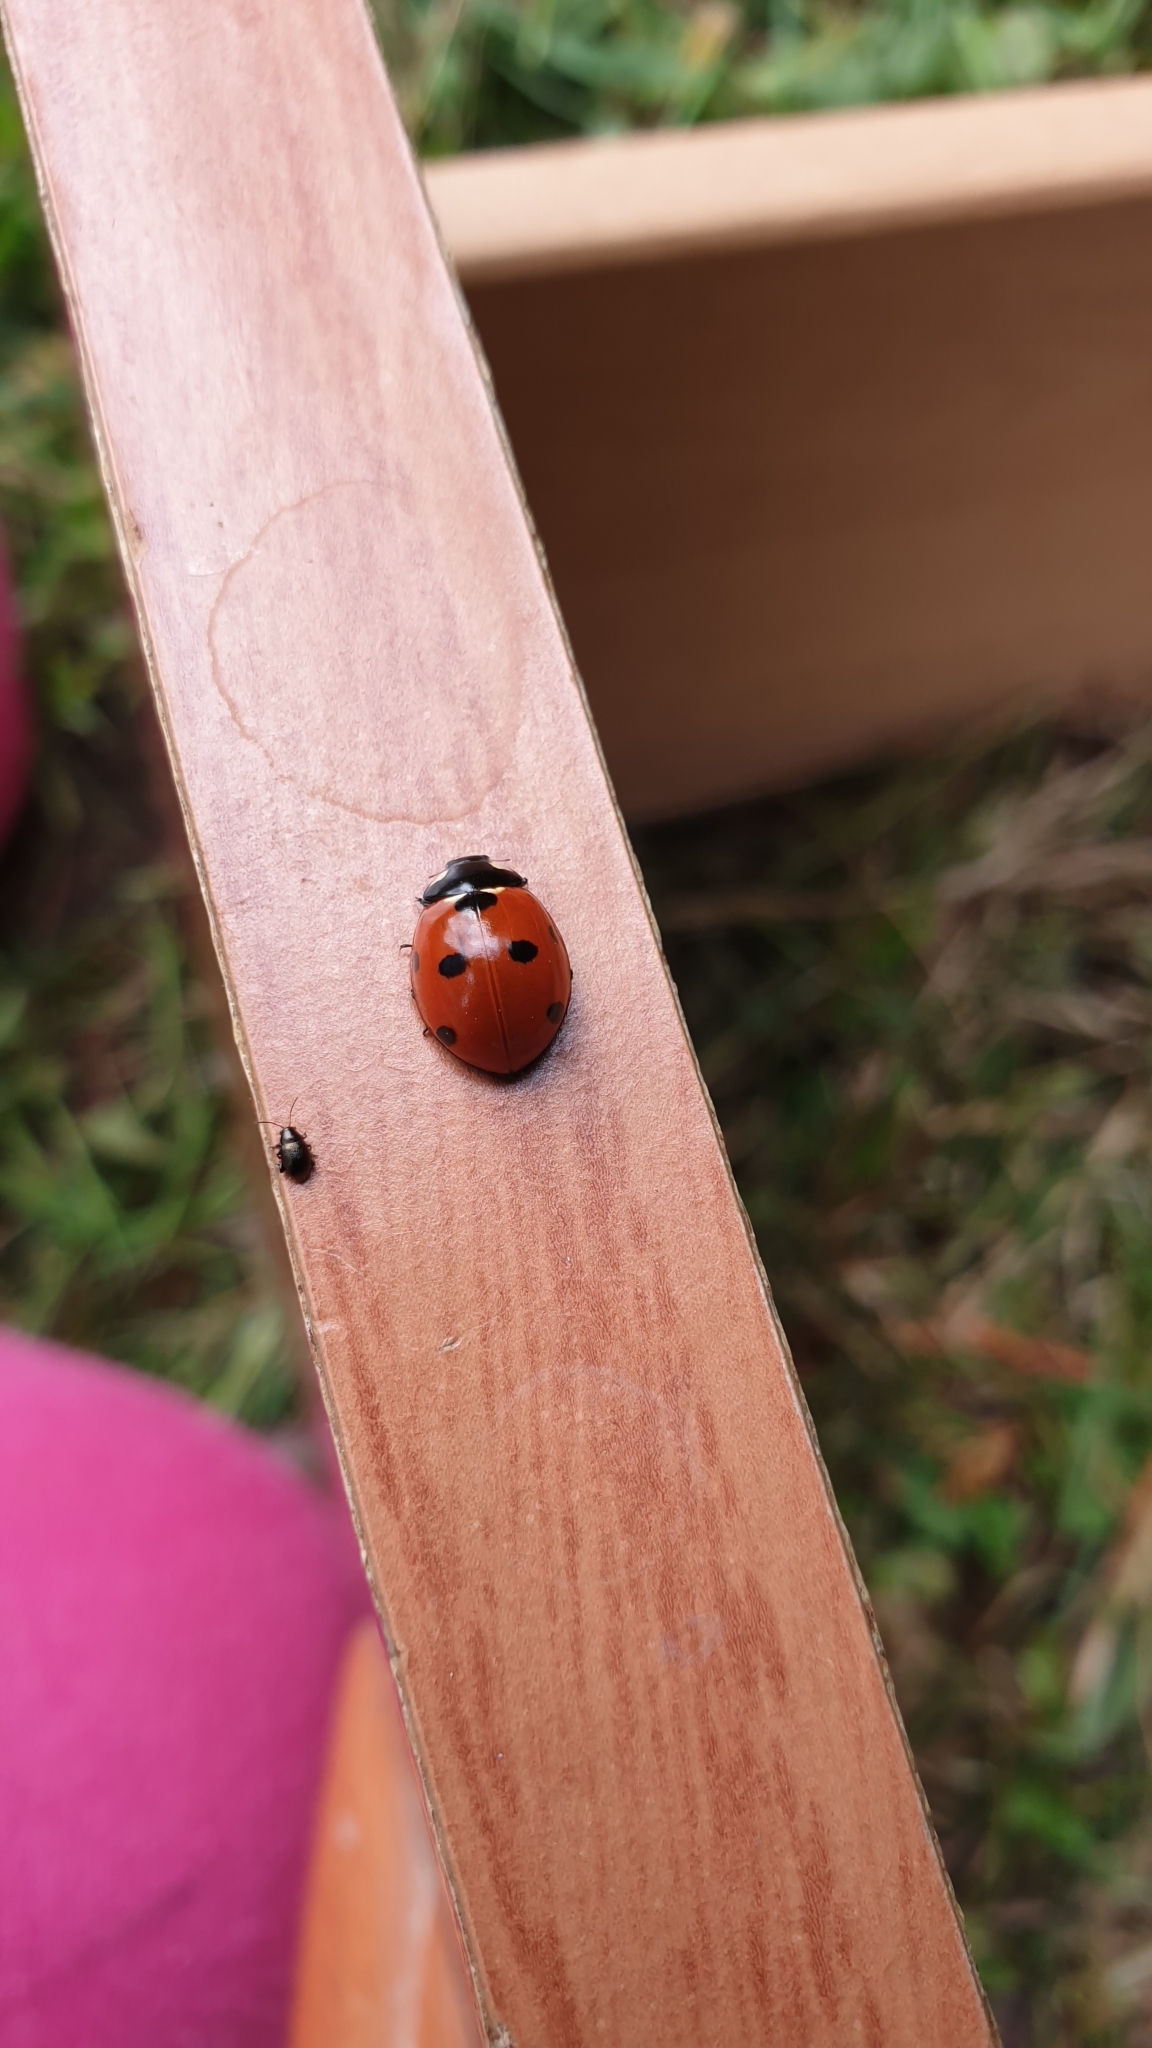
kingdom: Animalia
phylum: Arthropoda
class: Insecta
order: Coleoptera
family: Coccinellidae
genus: Coccinella
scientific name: Coccinella septempunctata
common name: Sevenspotted lady beetle
